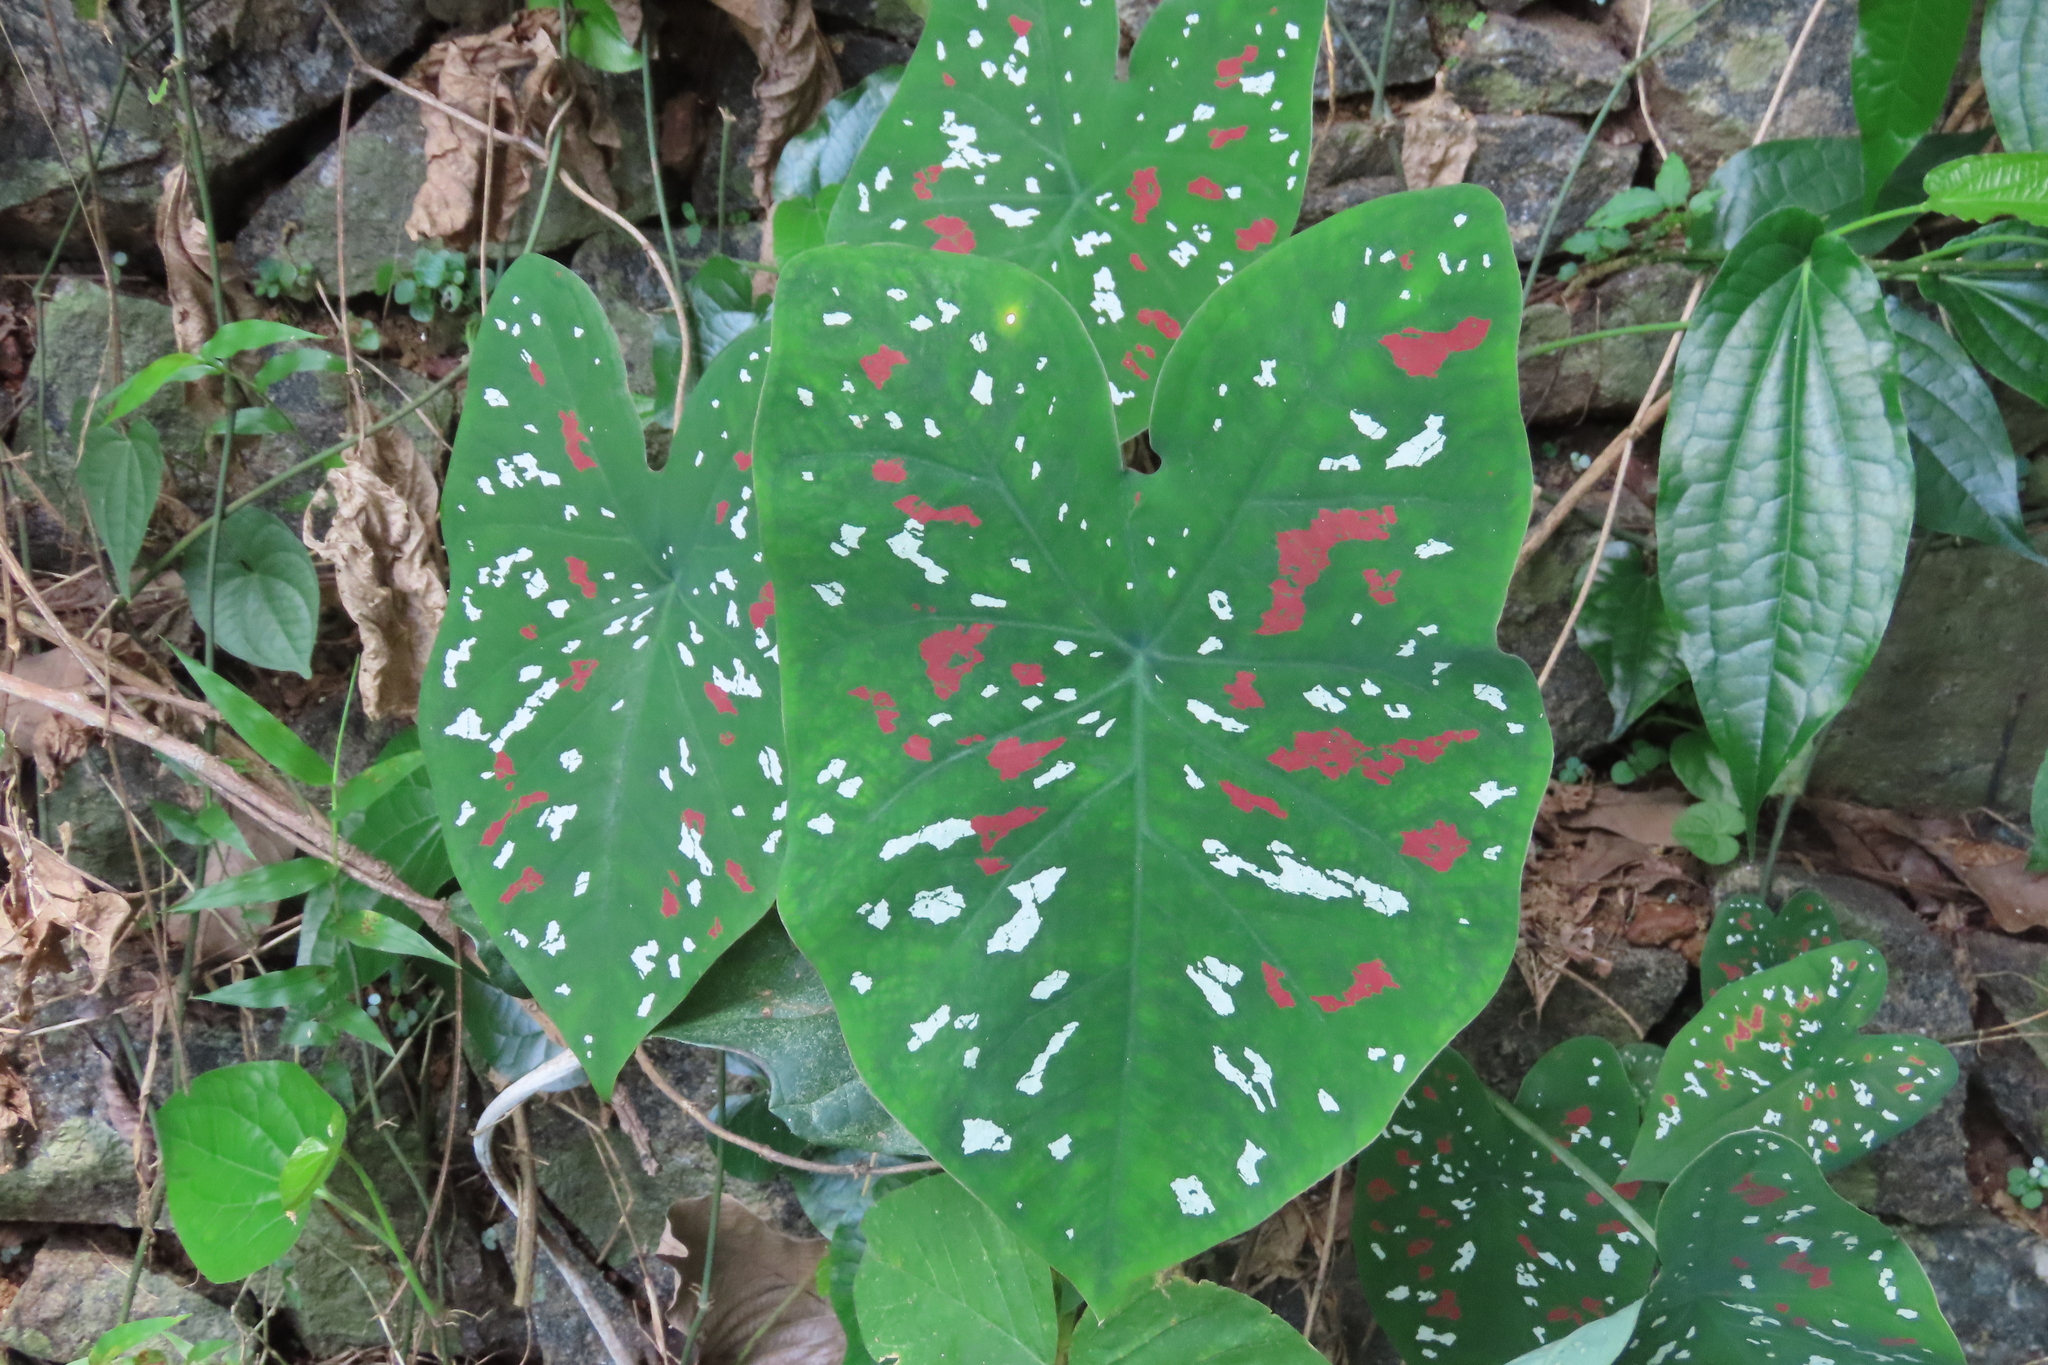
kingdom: Plantae
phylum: Tracheophyta
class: Liliopsida
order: Alismatales
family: Araceae
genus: Caladium
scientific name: Caladium bicolor
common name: Artist's pallet
